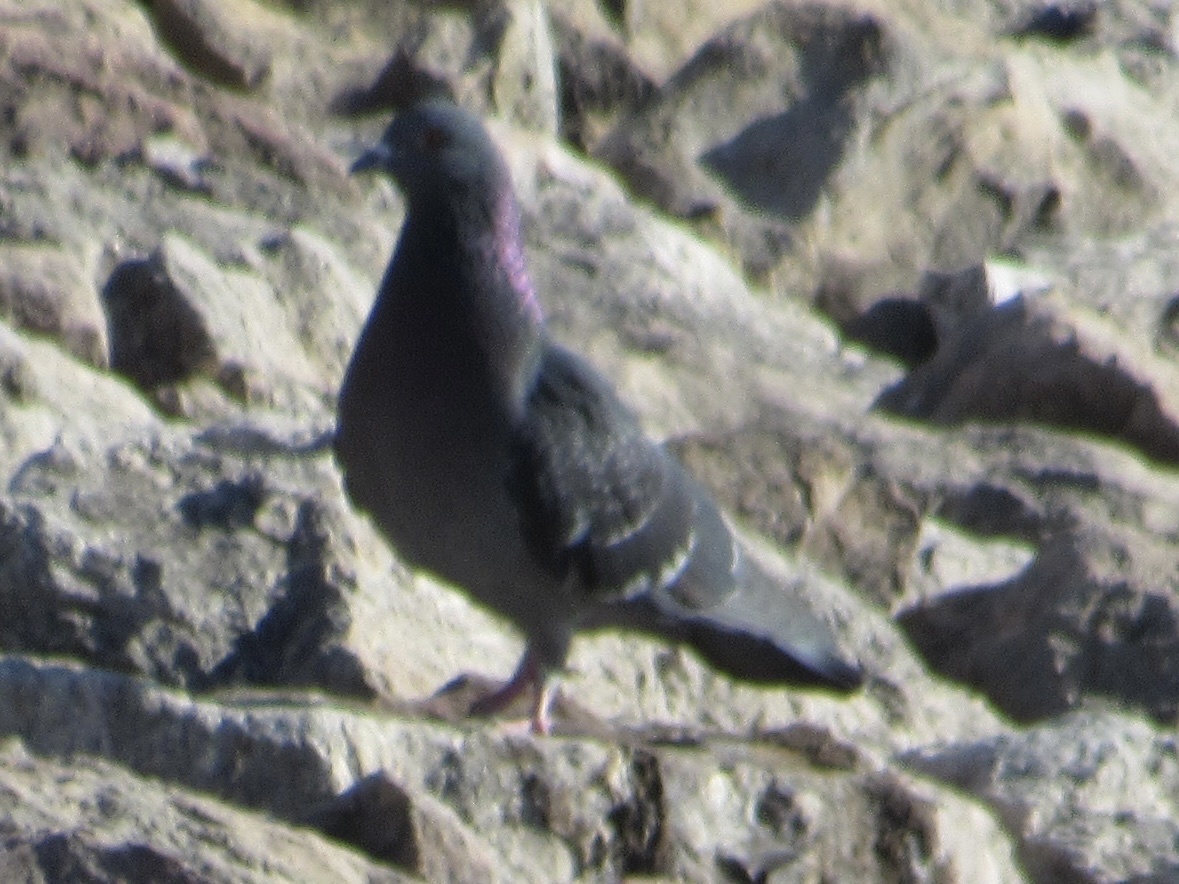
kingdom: Animalia
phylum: Chordata
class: Aves
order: Columbiformes
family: Columbidae
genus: Columba
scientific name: Columba livia
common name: Rock pigeon
